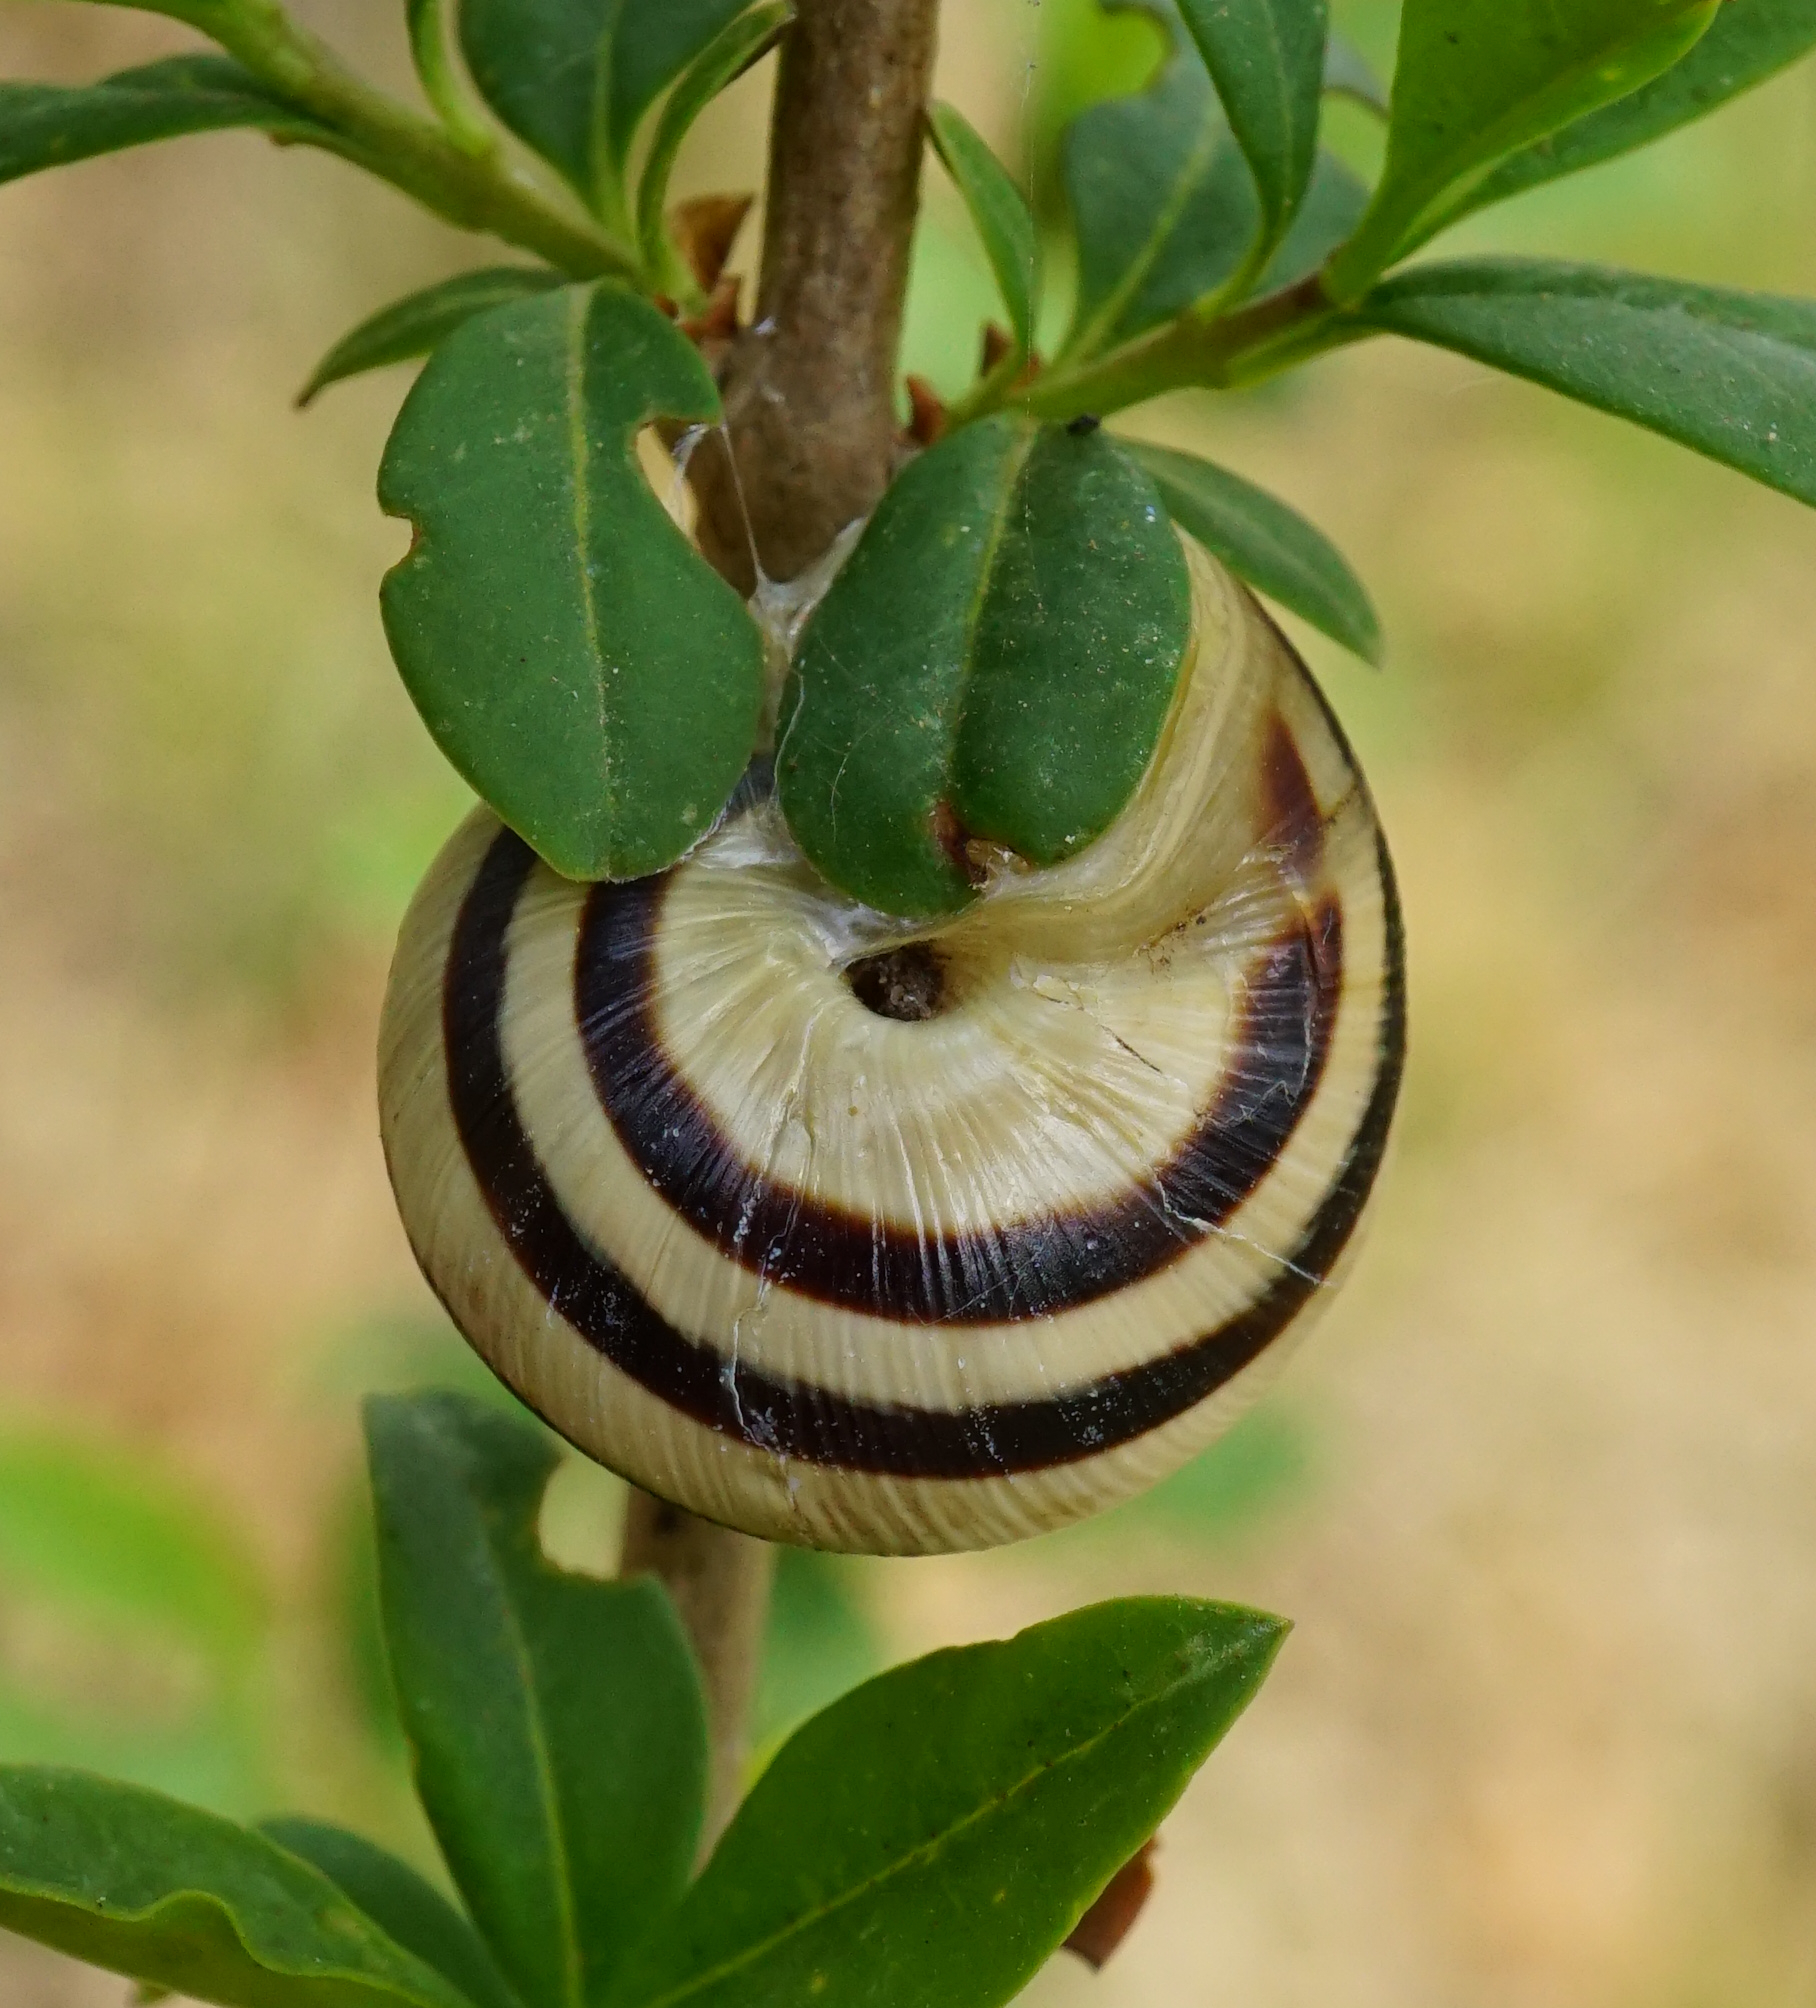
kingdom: Animalia
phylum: Mollusca
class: Gastropoda
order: Stylommatophora
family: Helicidae
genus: Caucasotachea
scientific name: Caucasotachea vindobonensis
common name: European helicid land snail
